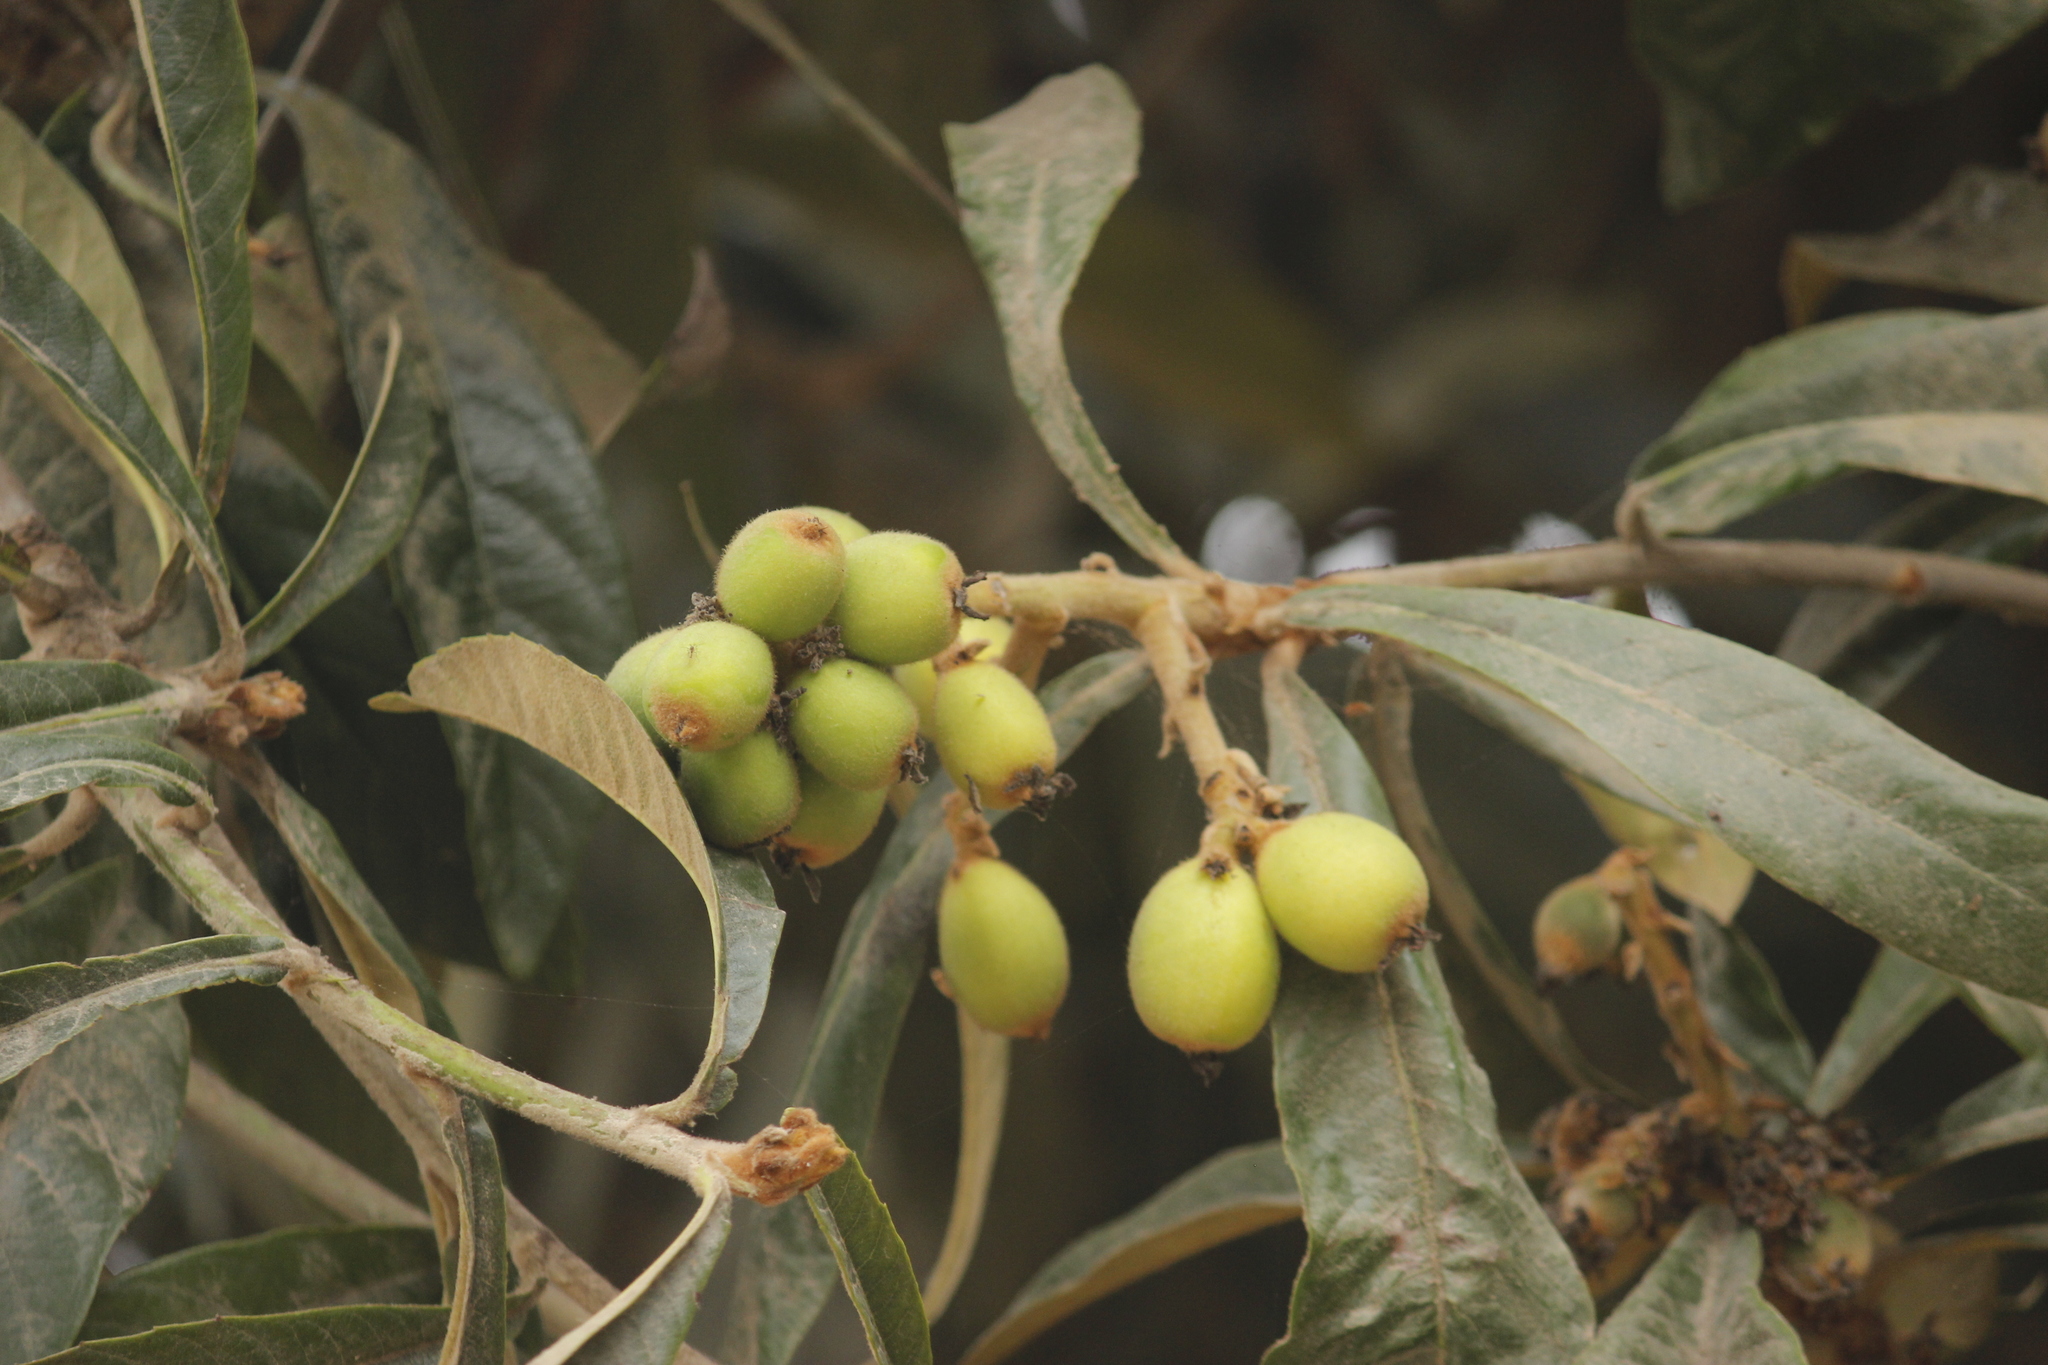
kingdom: Plantae
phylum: Tracheophyta
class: Magnoliopsida
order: Rosales
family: Rosaceae
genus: Rhaphiolepis
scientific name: Rhaphiolepis bibas
